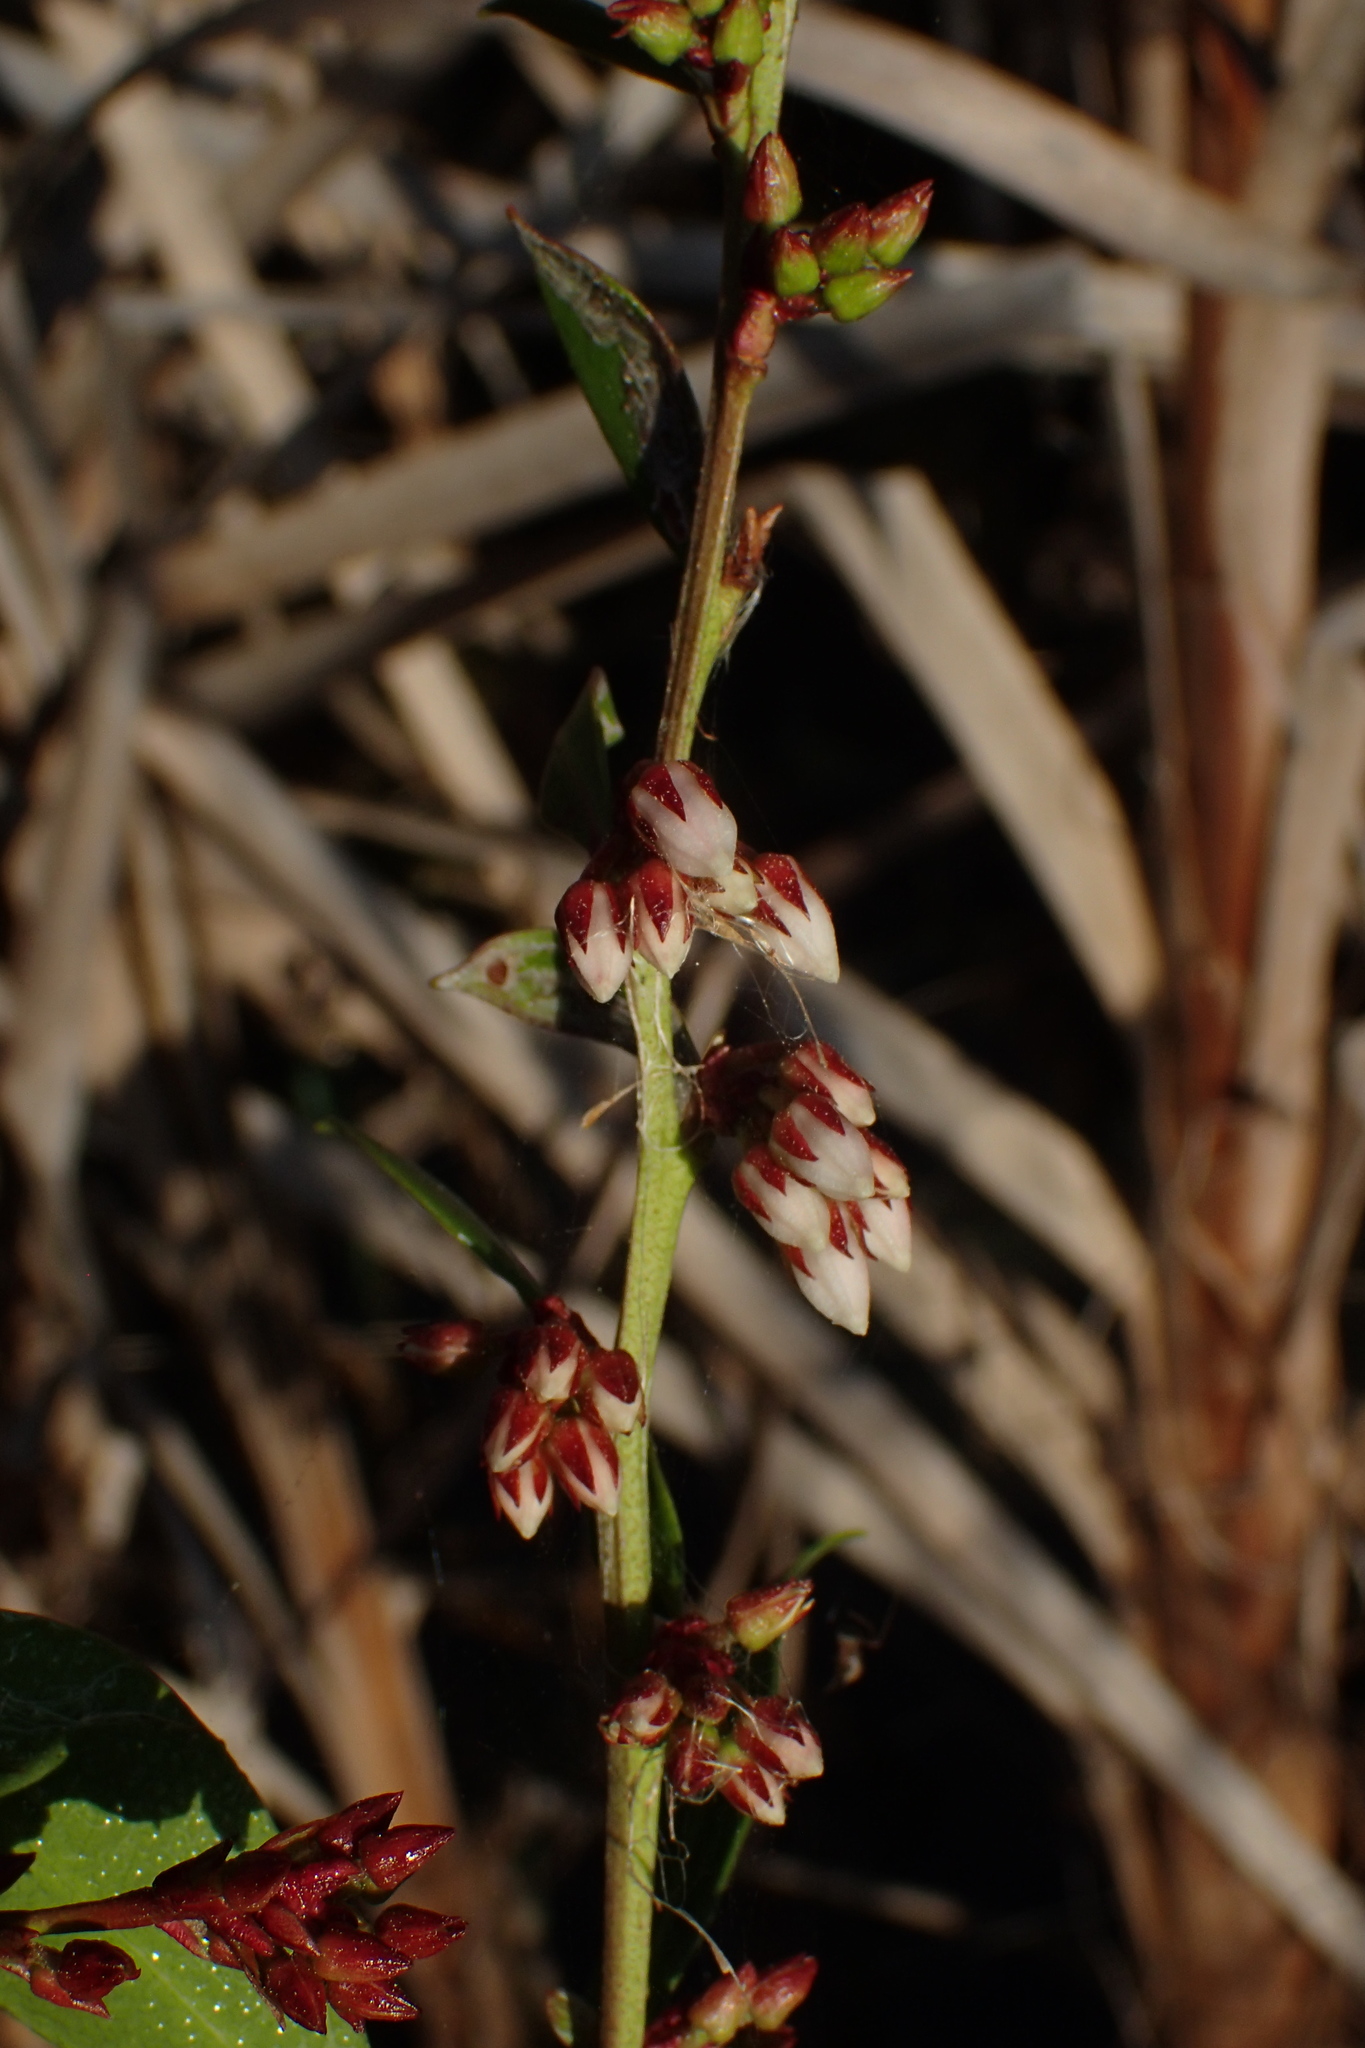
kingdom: Plantae
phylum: Tracheophyta
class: Magnoliopsida
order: Ericales
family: Ericaceae
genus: Lyonia
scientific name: Lyonia lucida
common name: Fetterbush
